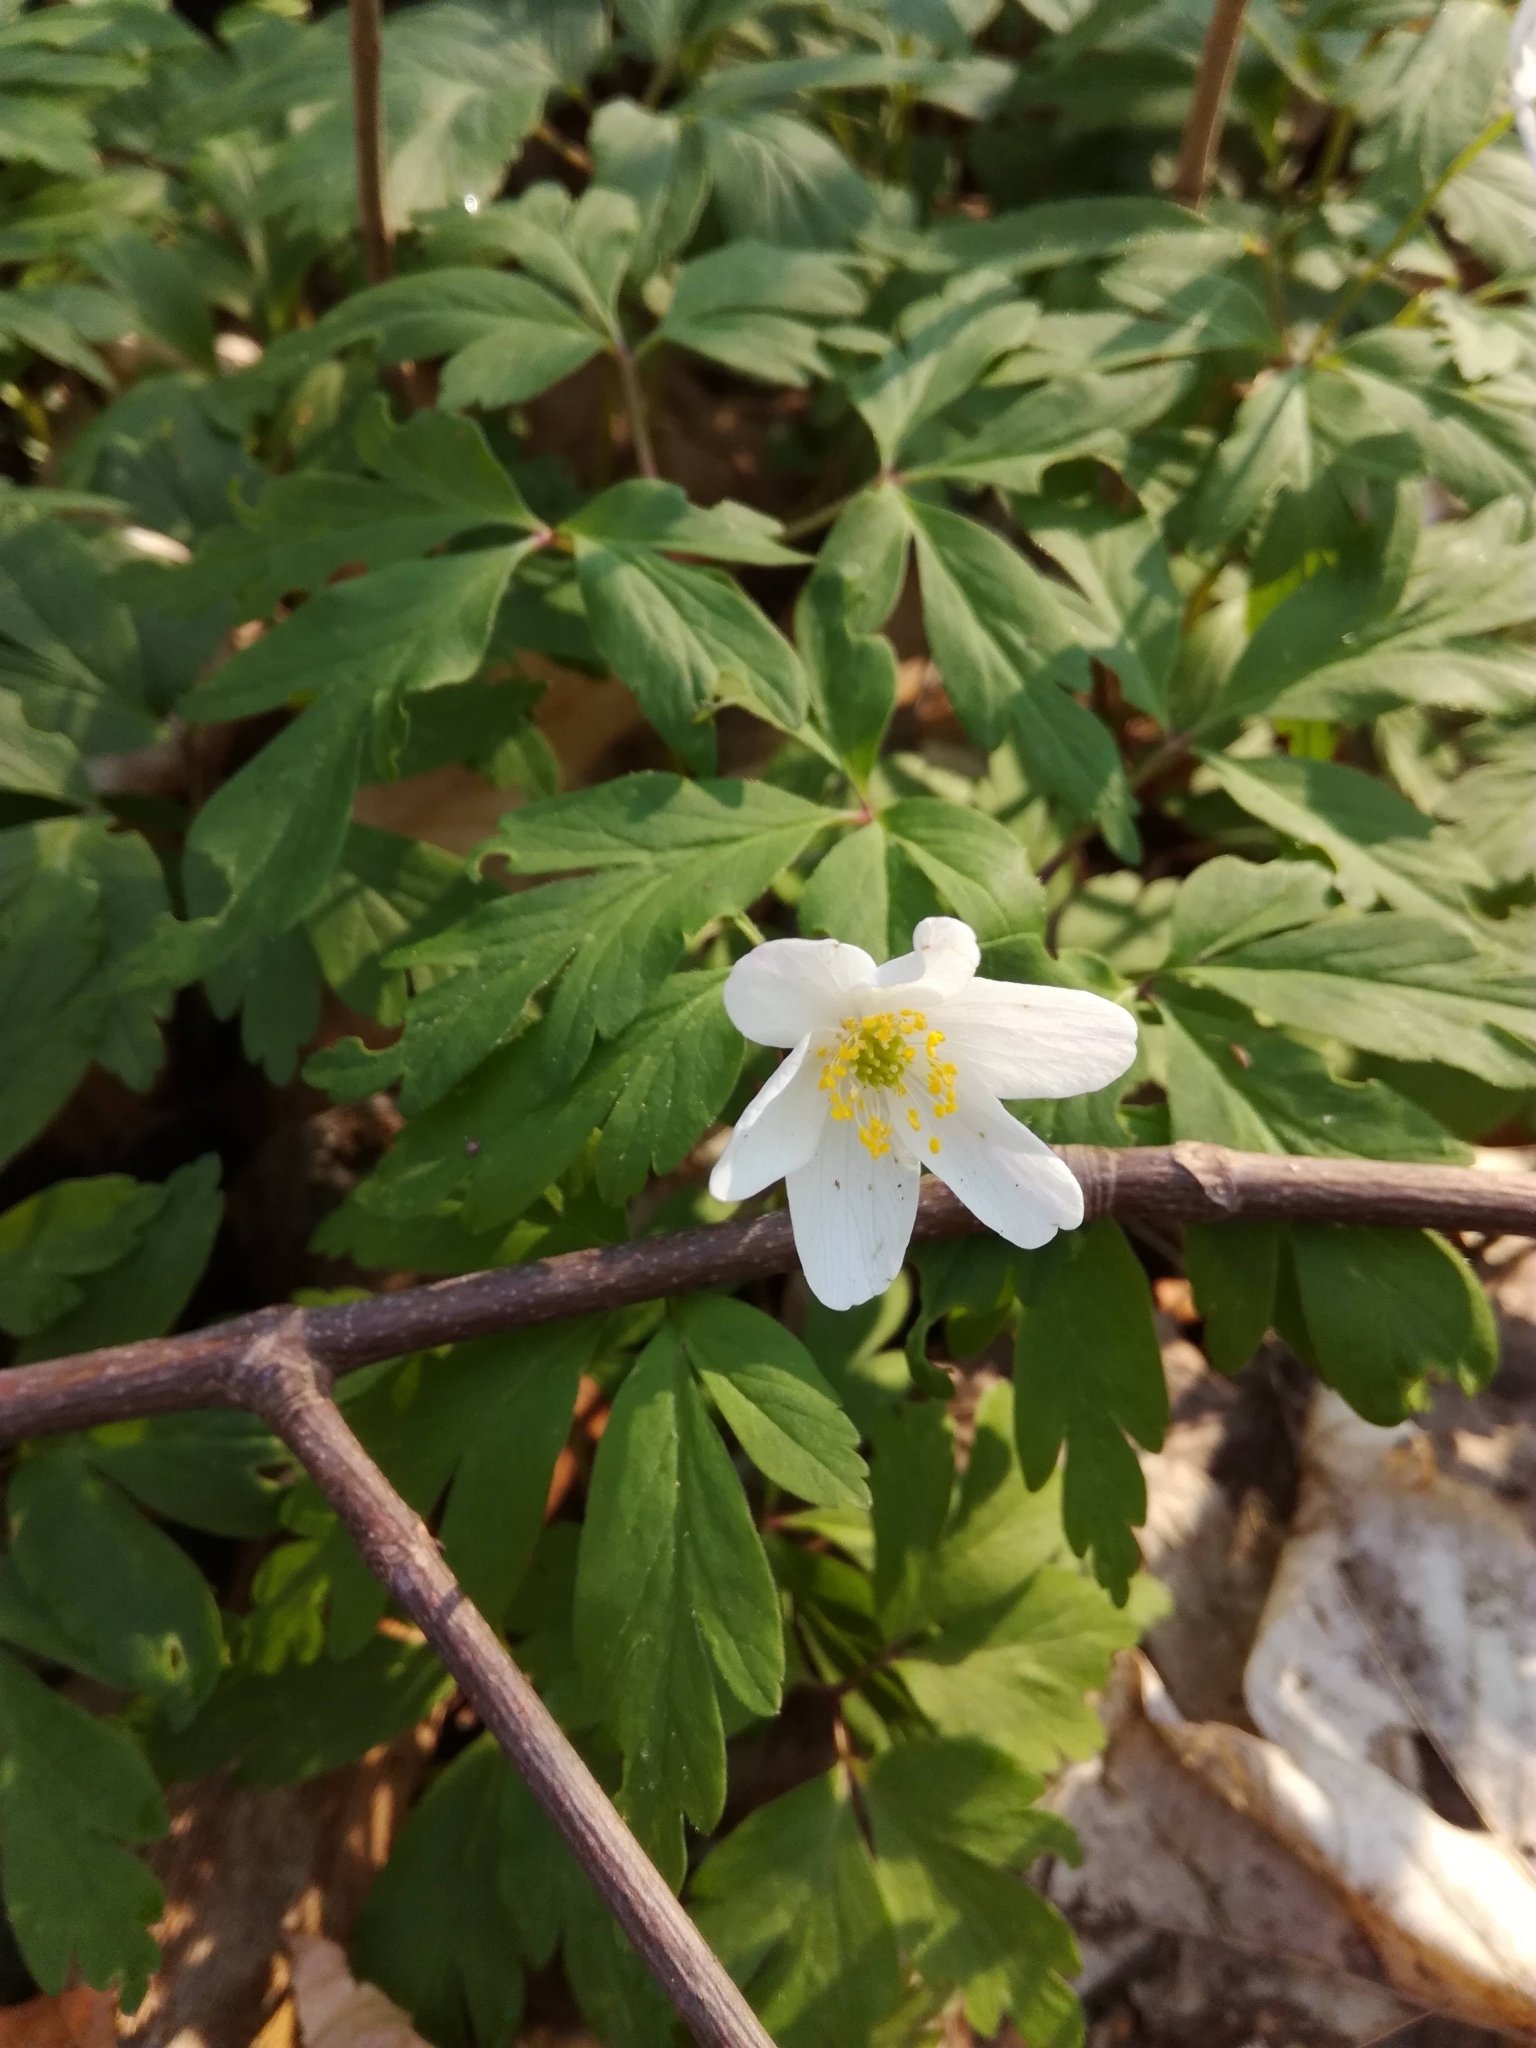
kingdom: Plantae
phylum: Tracheophyta
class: Magnoliopsida
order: Ranunculales
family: Ranunculaceae
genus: Anemone
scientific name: Anemone nemorosa
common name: Wood anemone
